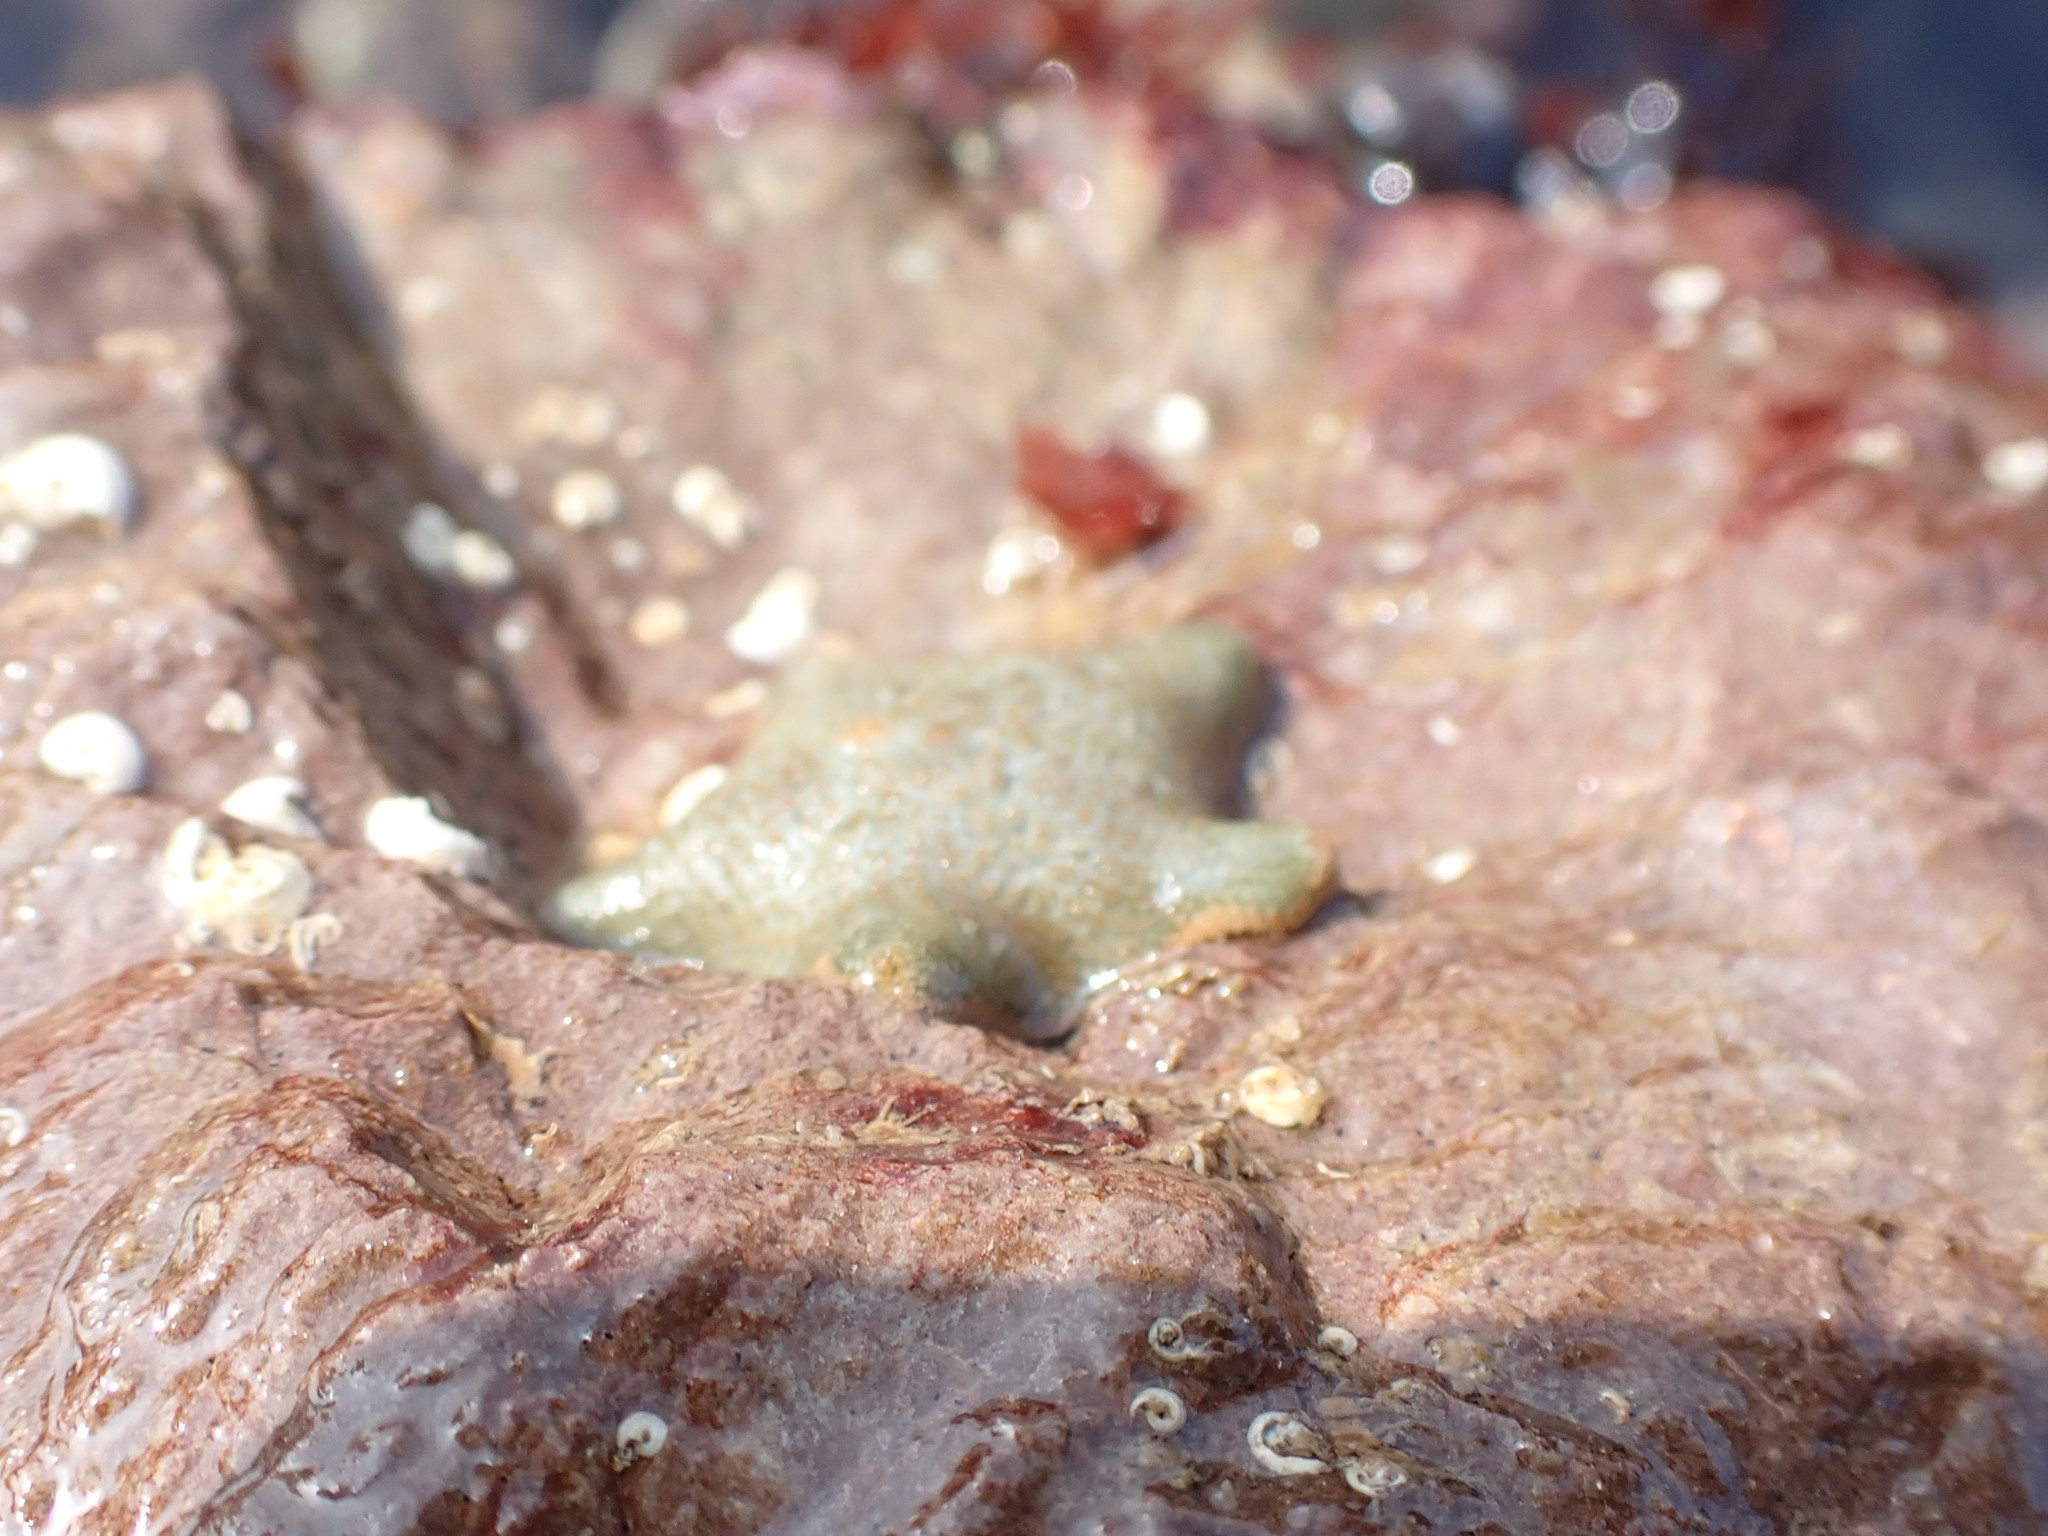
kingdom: Animalia
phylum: Echinodermata
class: Asteroidea
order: Valvatida
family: Asterinidae
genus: Asterina
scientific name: Asterina gibbosa
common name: Cushion star
